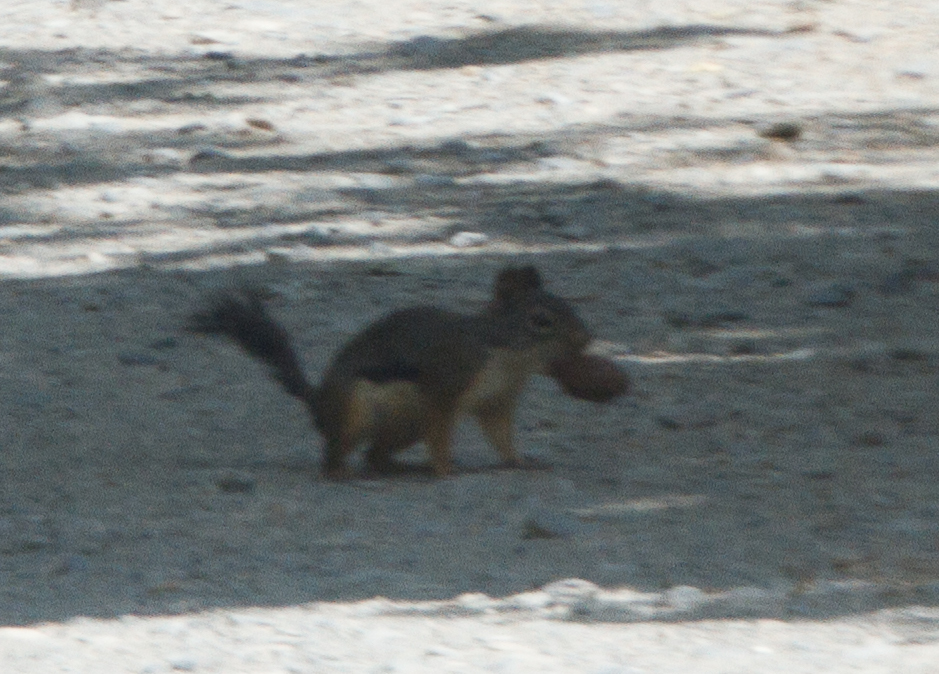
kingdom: Animalia
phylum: Chordata
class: Mammalia
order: Rodentia
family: Sciuridae
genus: Tamiasciurus
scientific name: Tamiasciurus douglasii
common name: Douglas's squirrel
